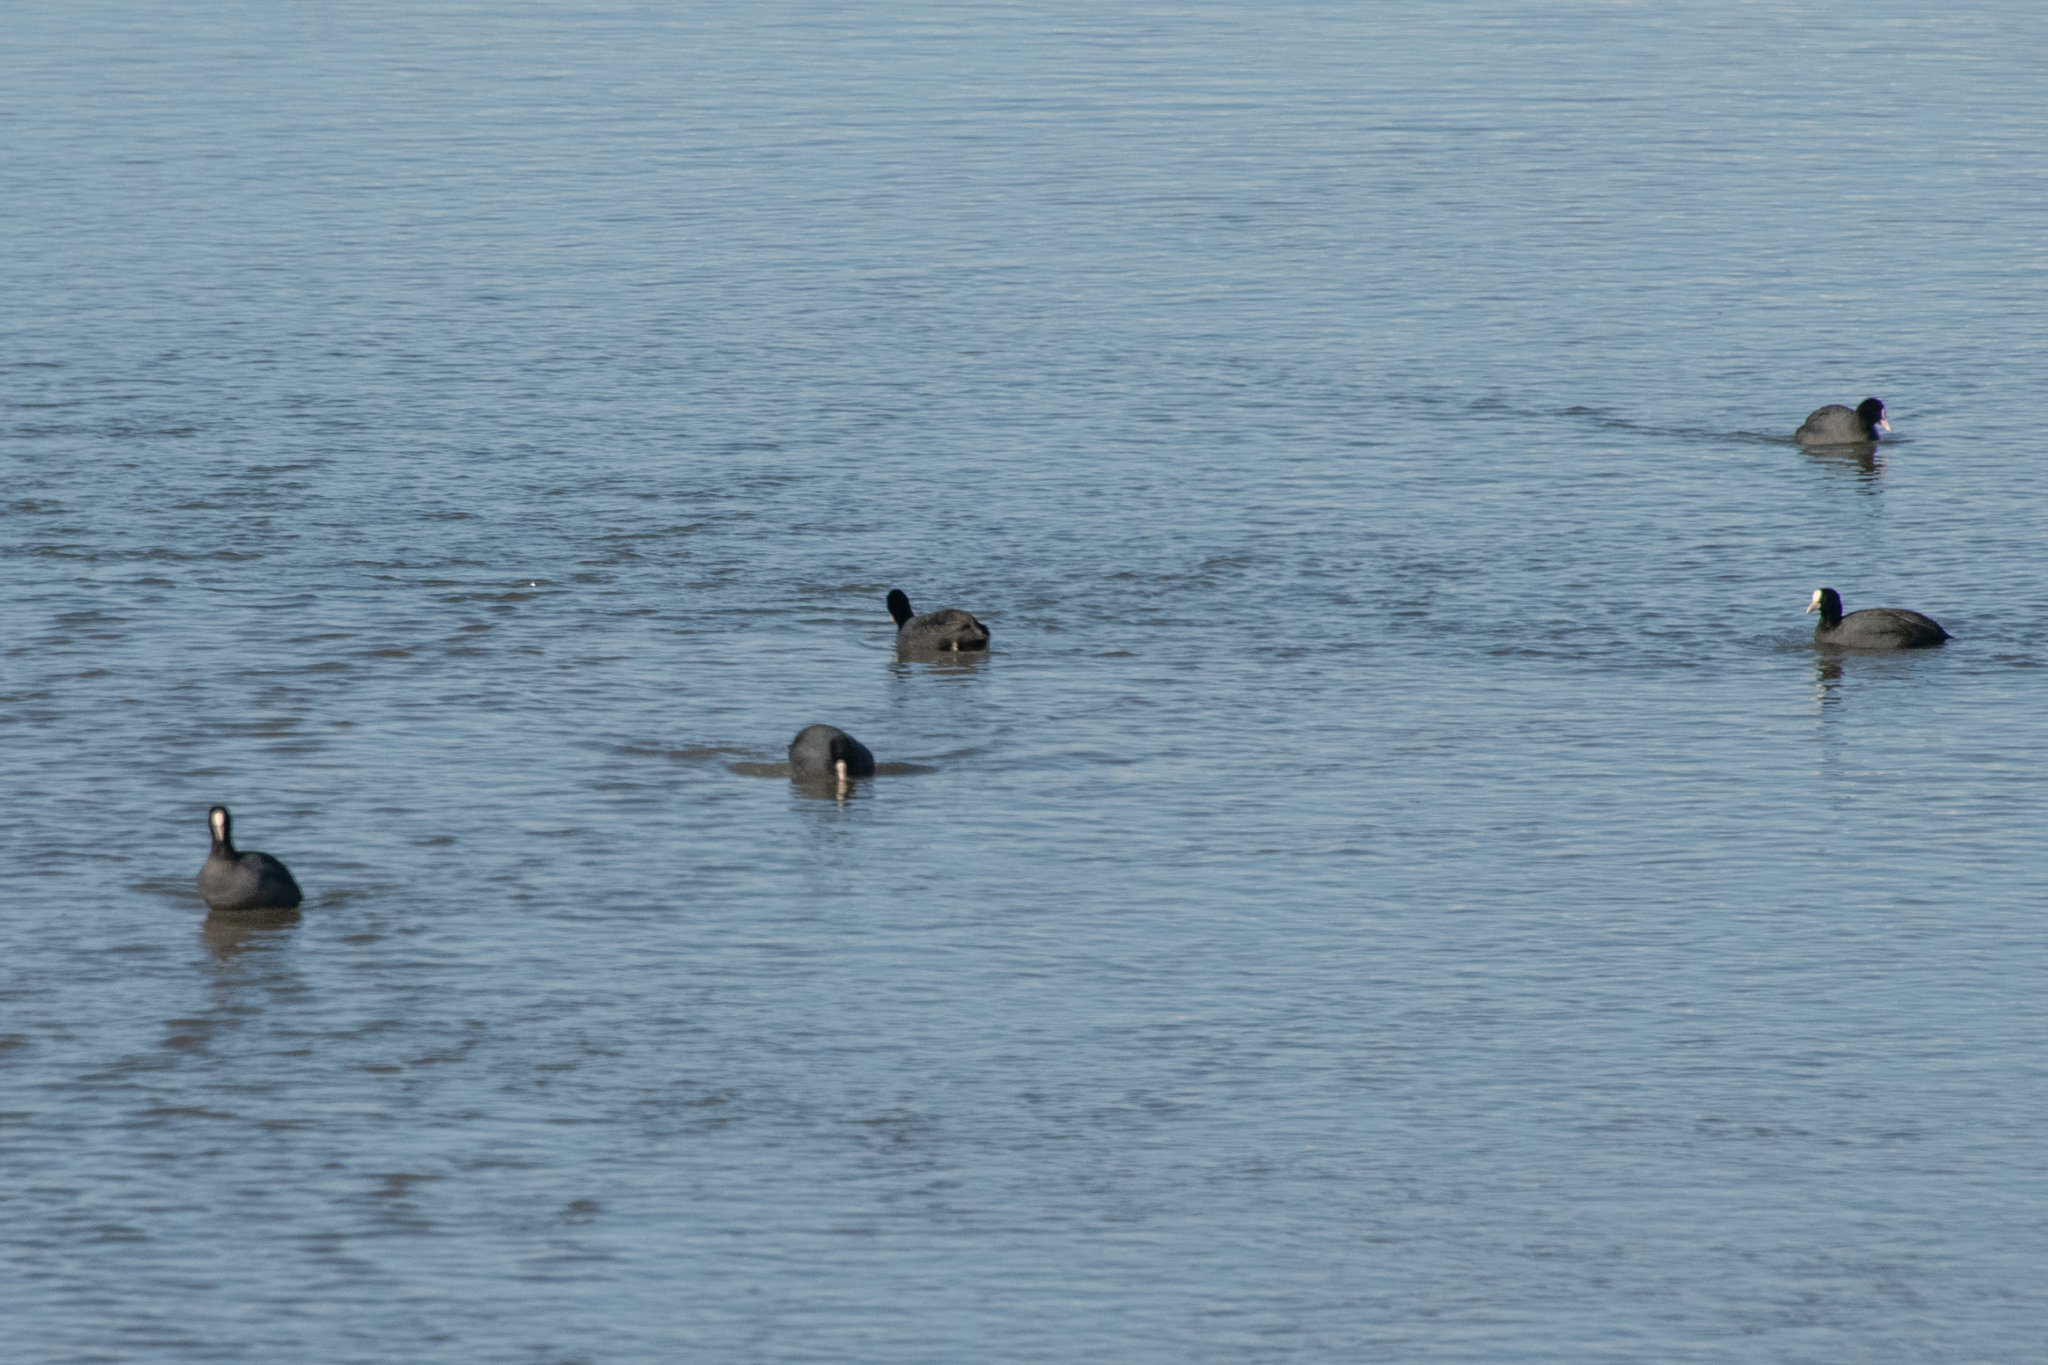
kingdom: Animalia
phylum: Chordata
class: Aves
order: Gruiformes
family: Rallidae
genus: Fulica
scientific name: Fulica atra
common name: Eurasian coot
